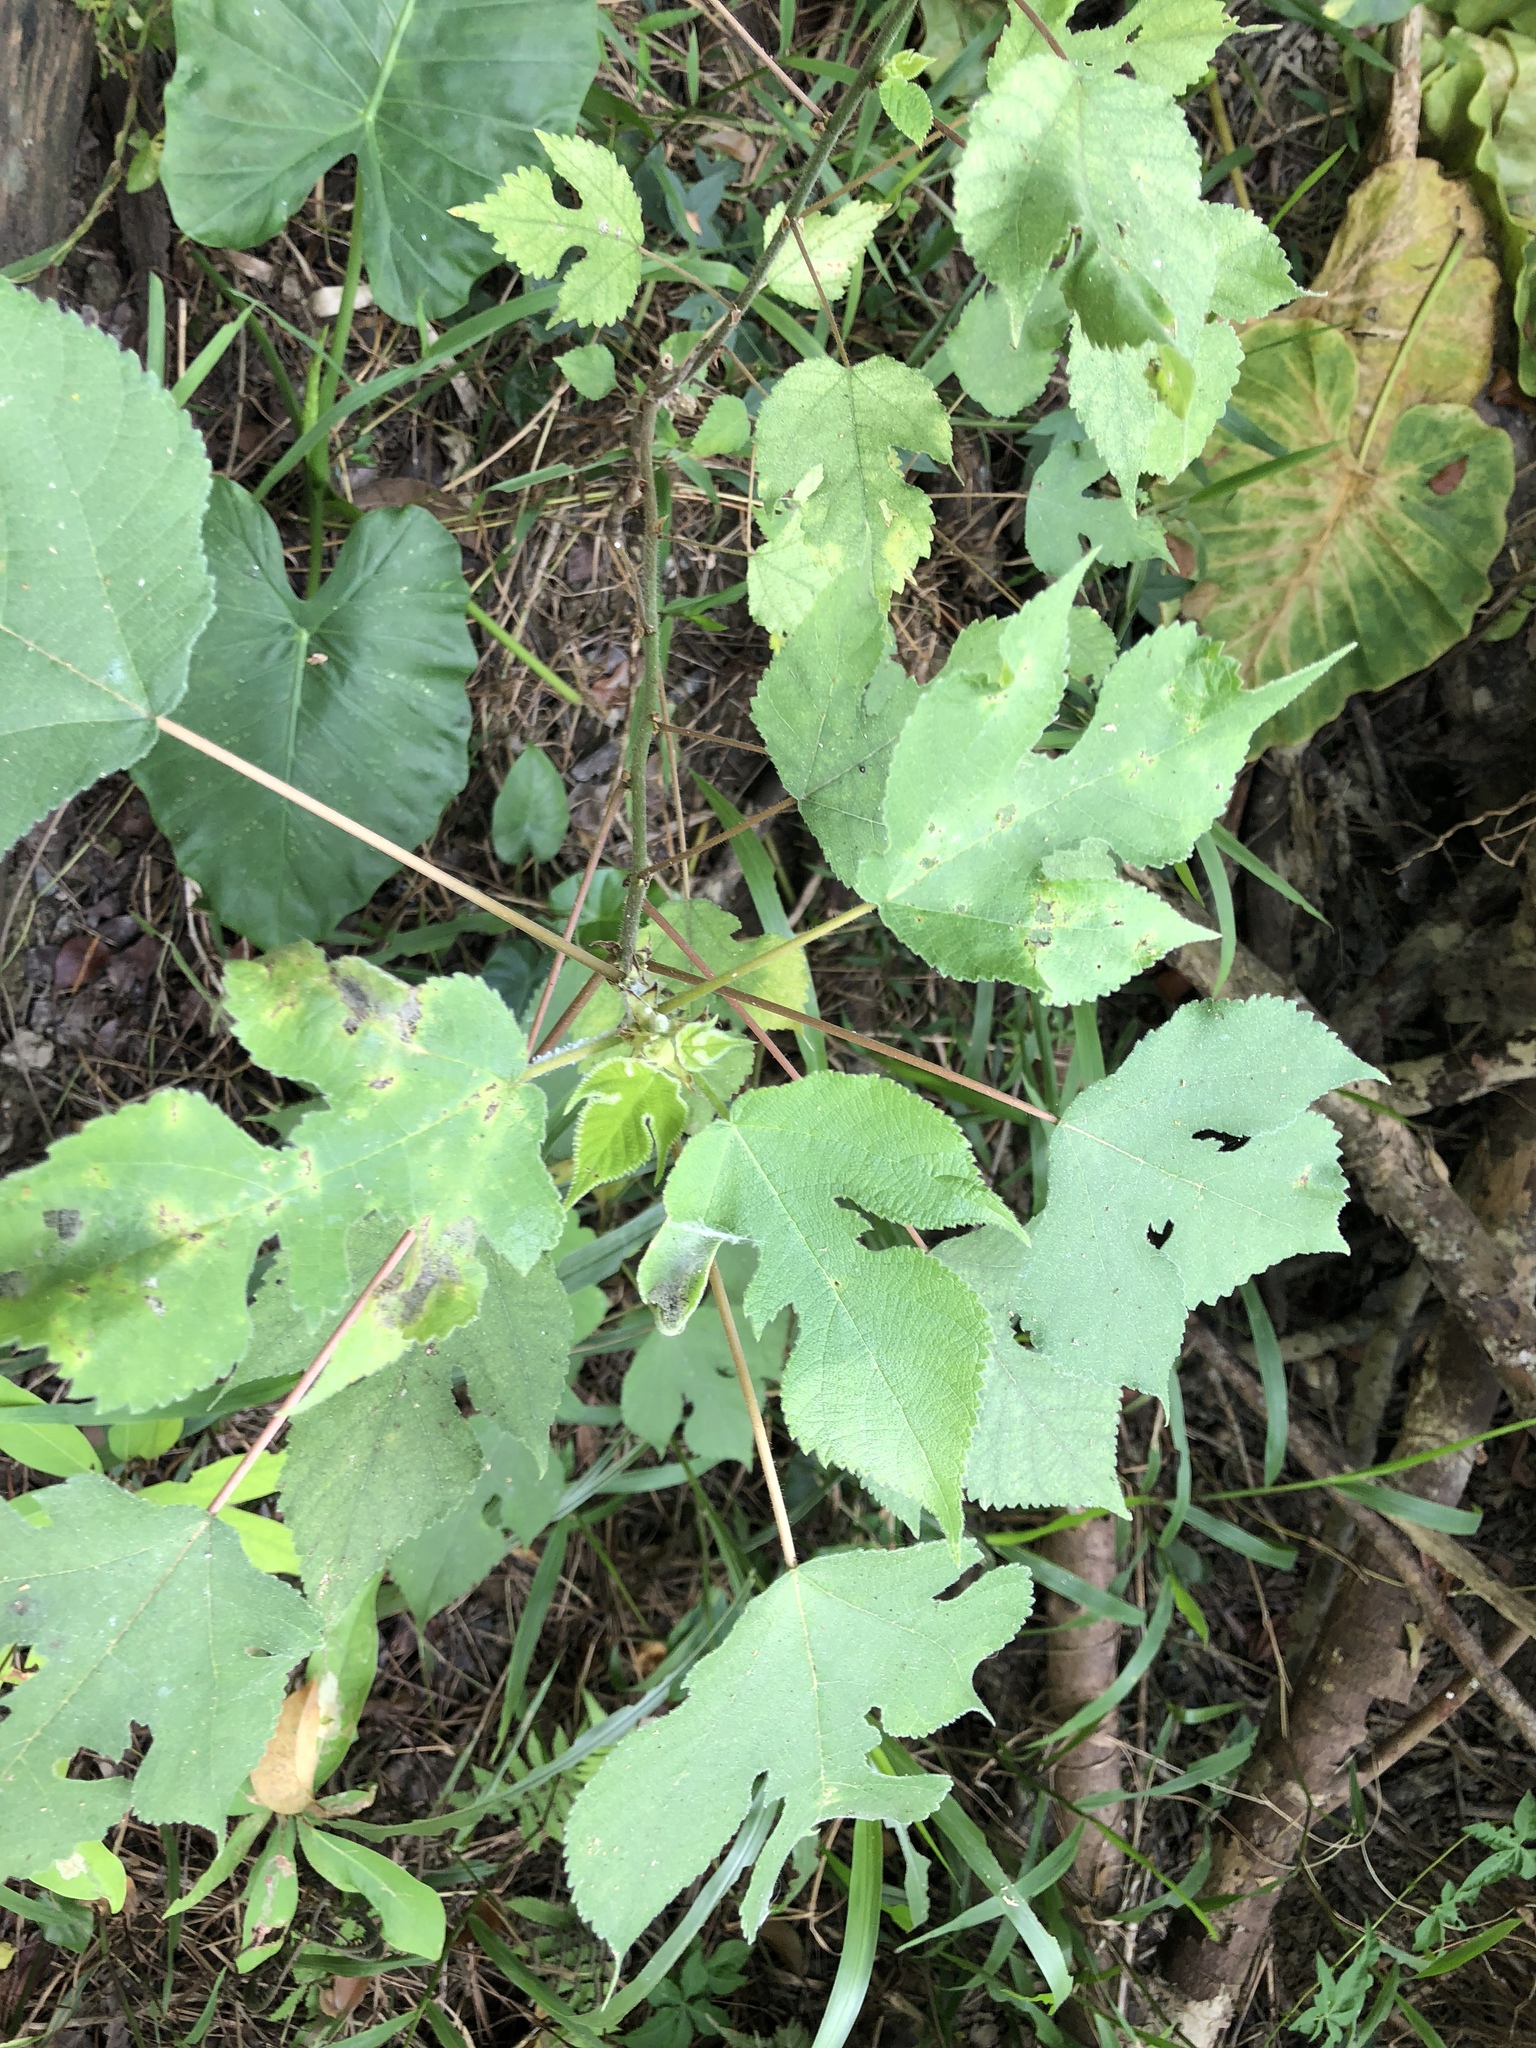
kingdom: Plantae
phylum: Tracheophyta
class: Magnoliopsida
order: Rosales
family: Moraceae
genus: Broussonetia
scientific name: Broussonetia papyrifera
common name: Paper mulberry
